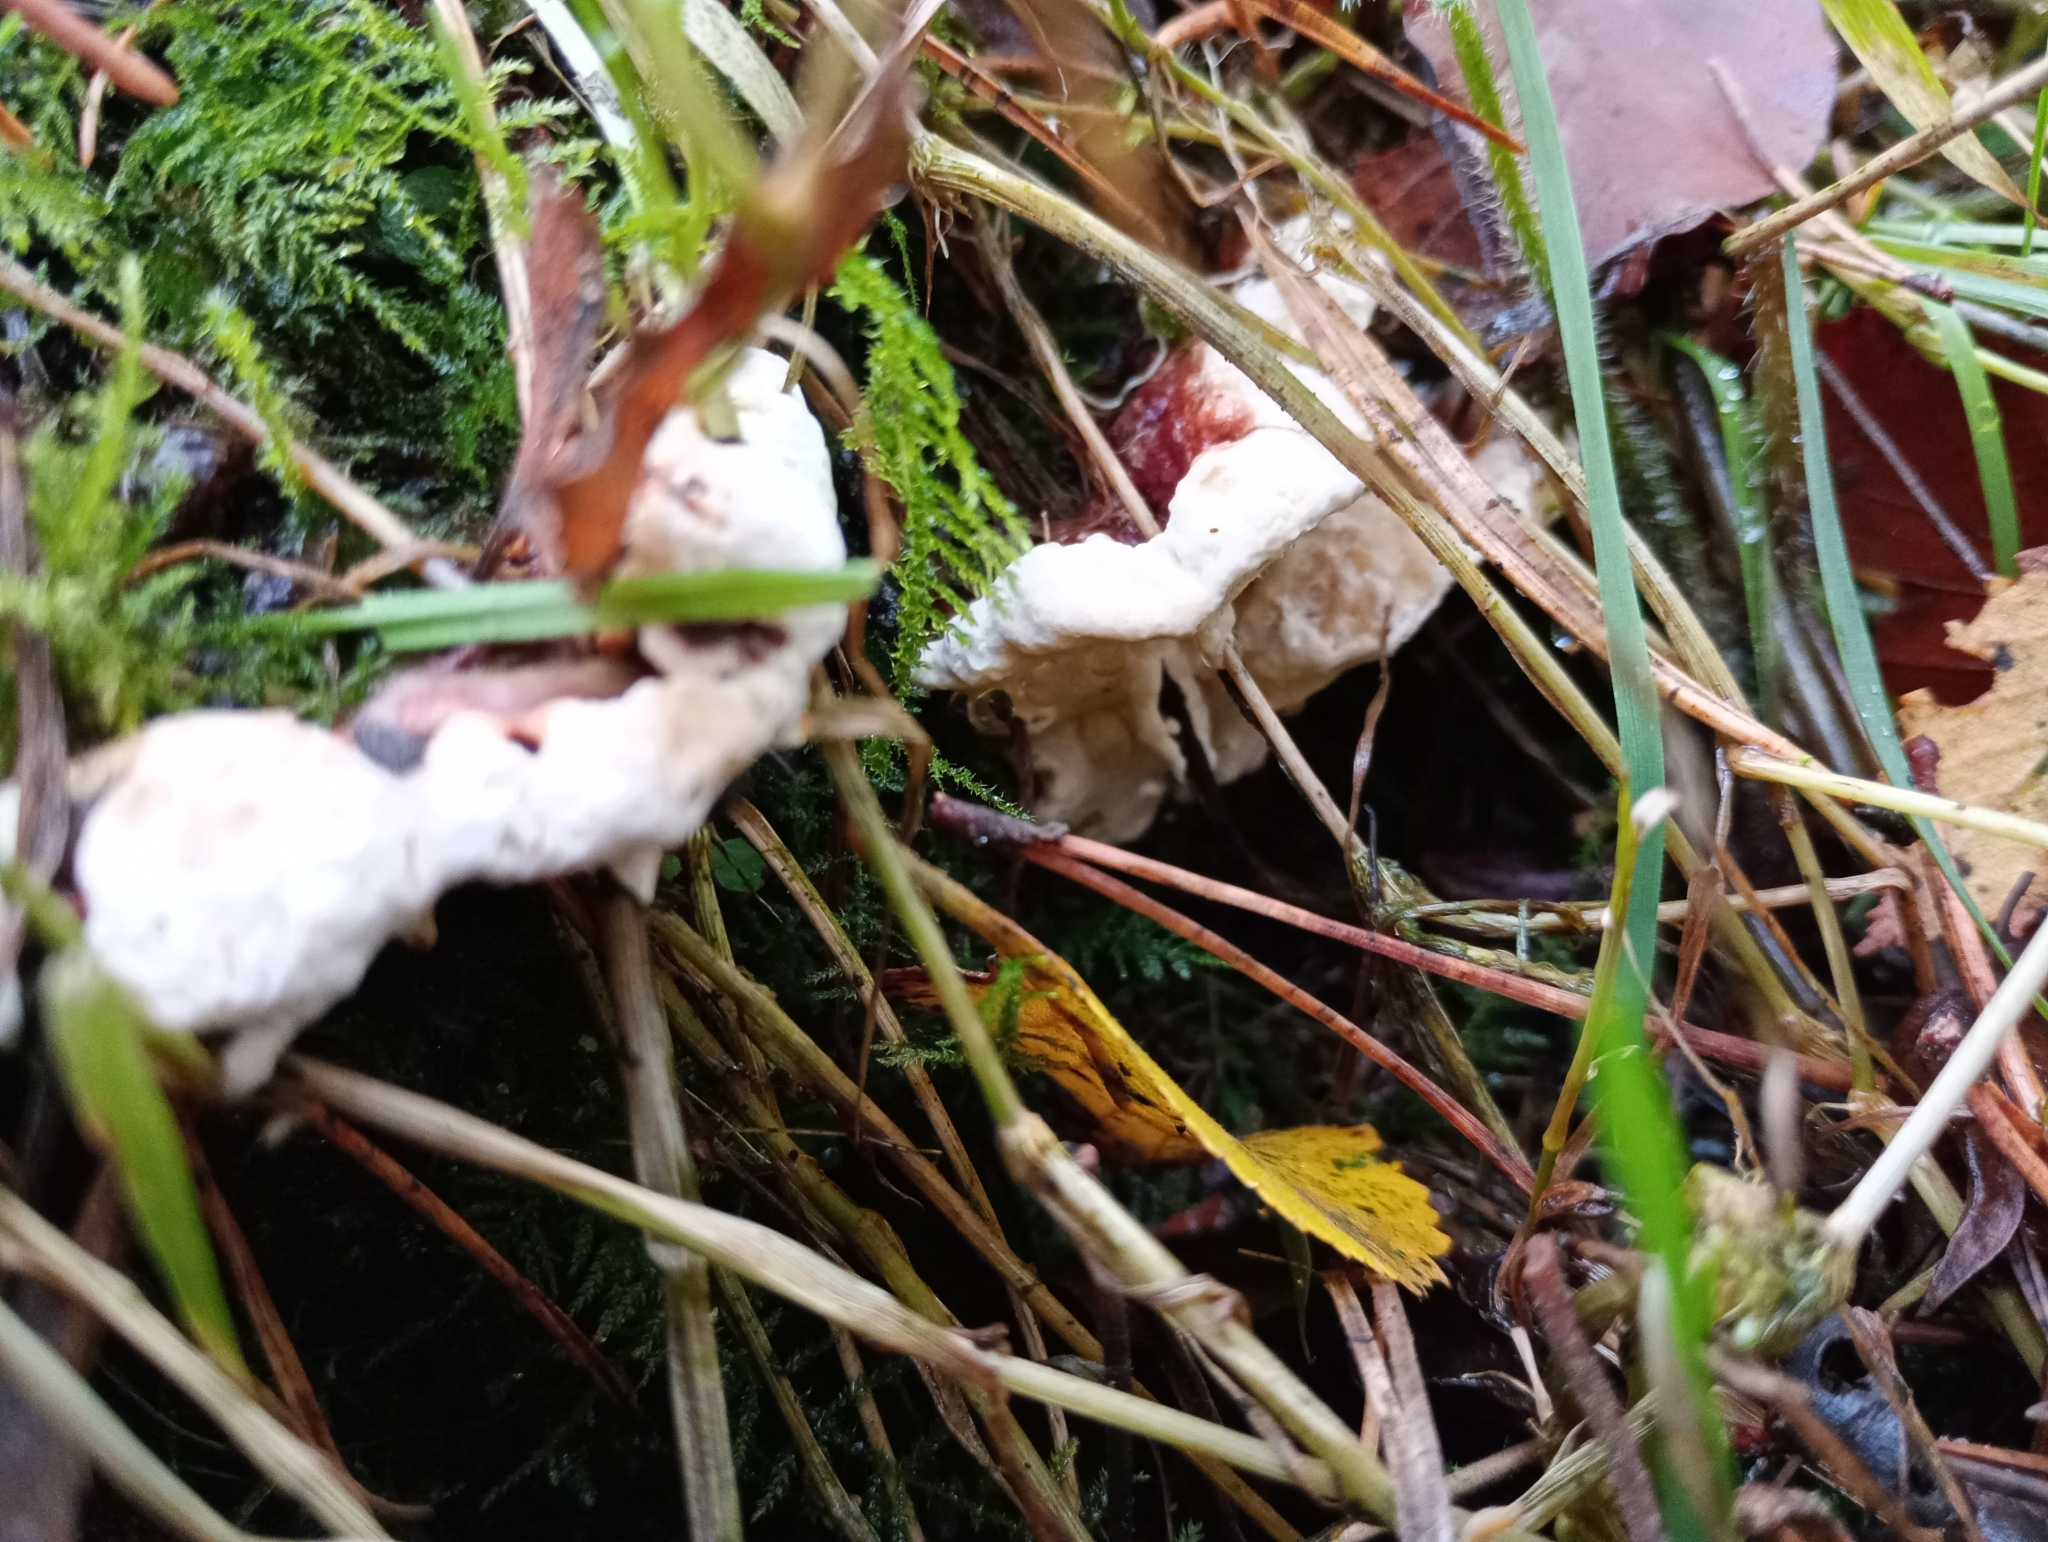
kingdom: Fungi
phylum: Basidiomycota
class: Agaricomycetes
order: Russulales
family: Bondarzewiaceae
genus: Heterobasidion
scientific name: Heterobasidion annosum
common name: Root rot
